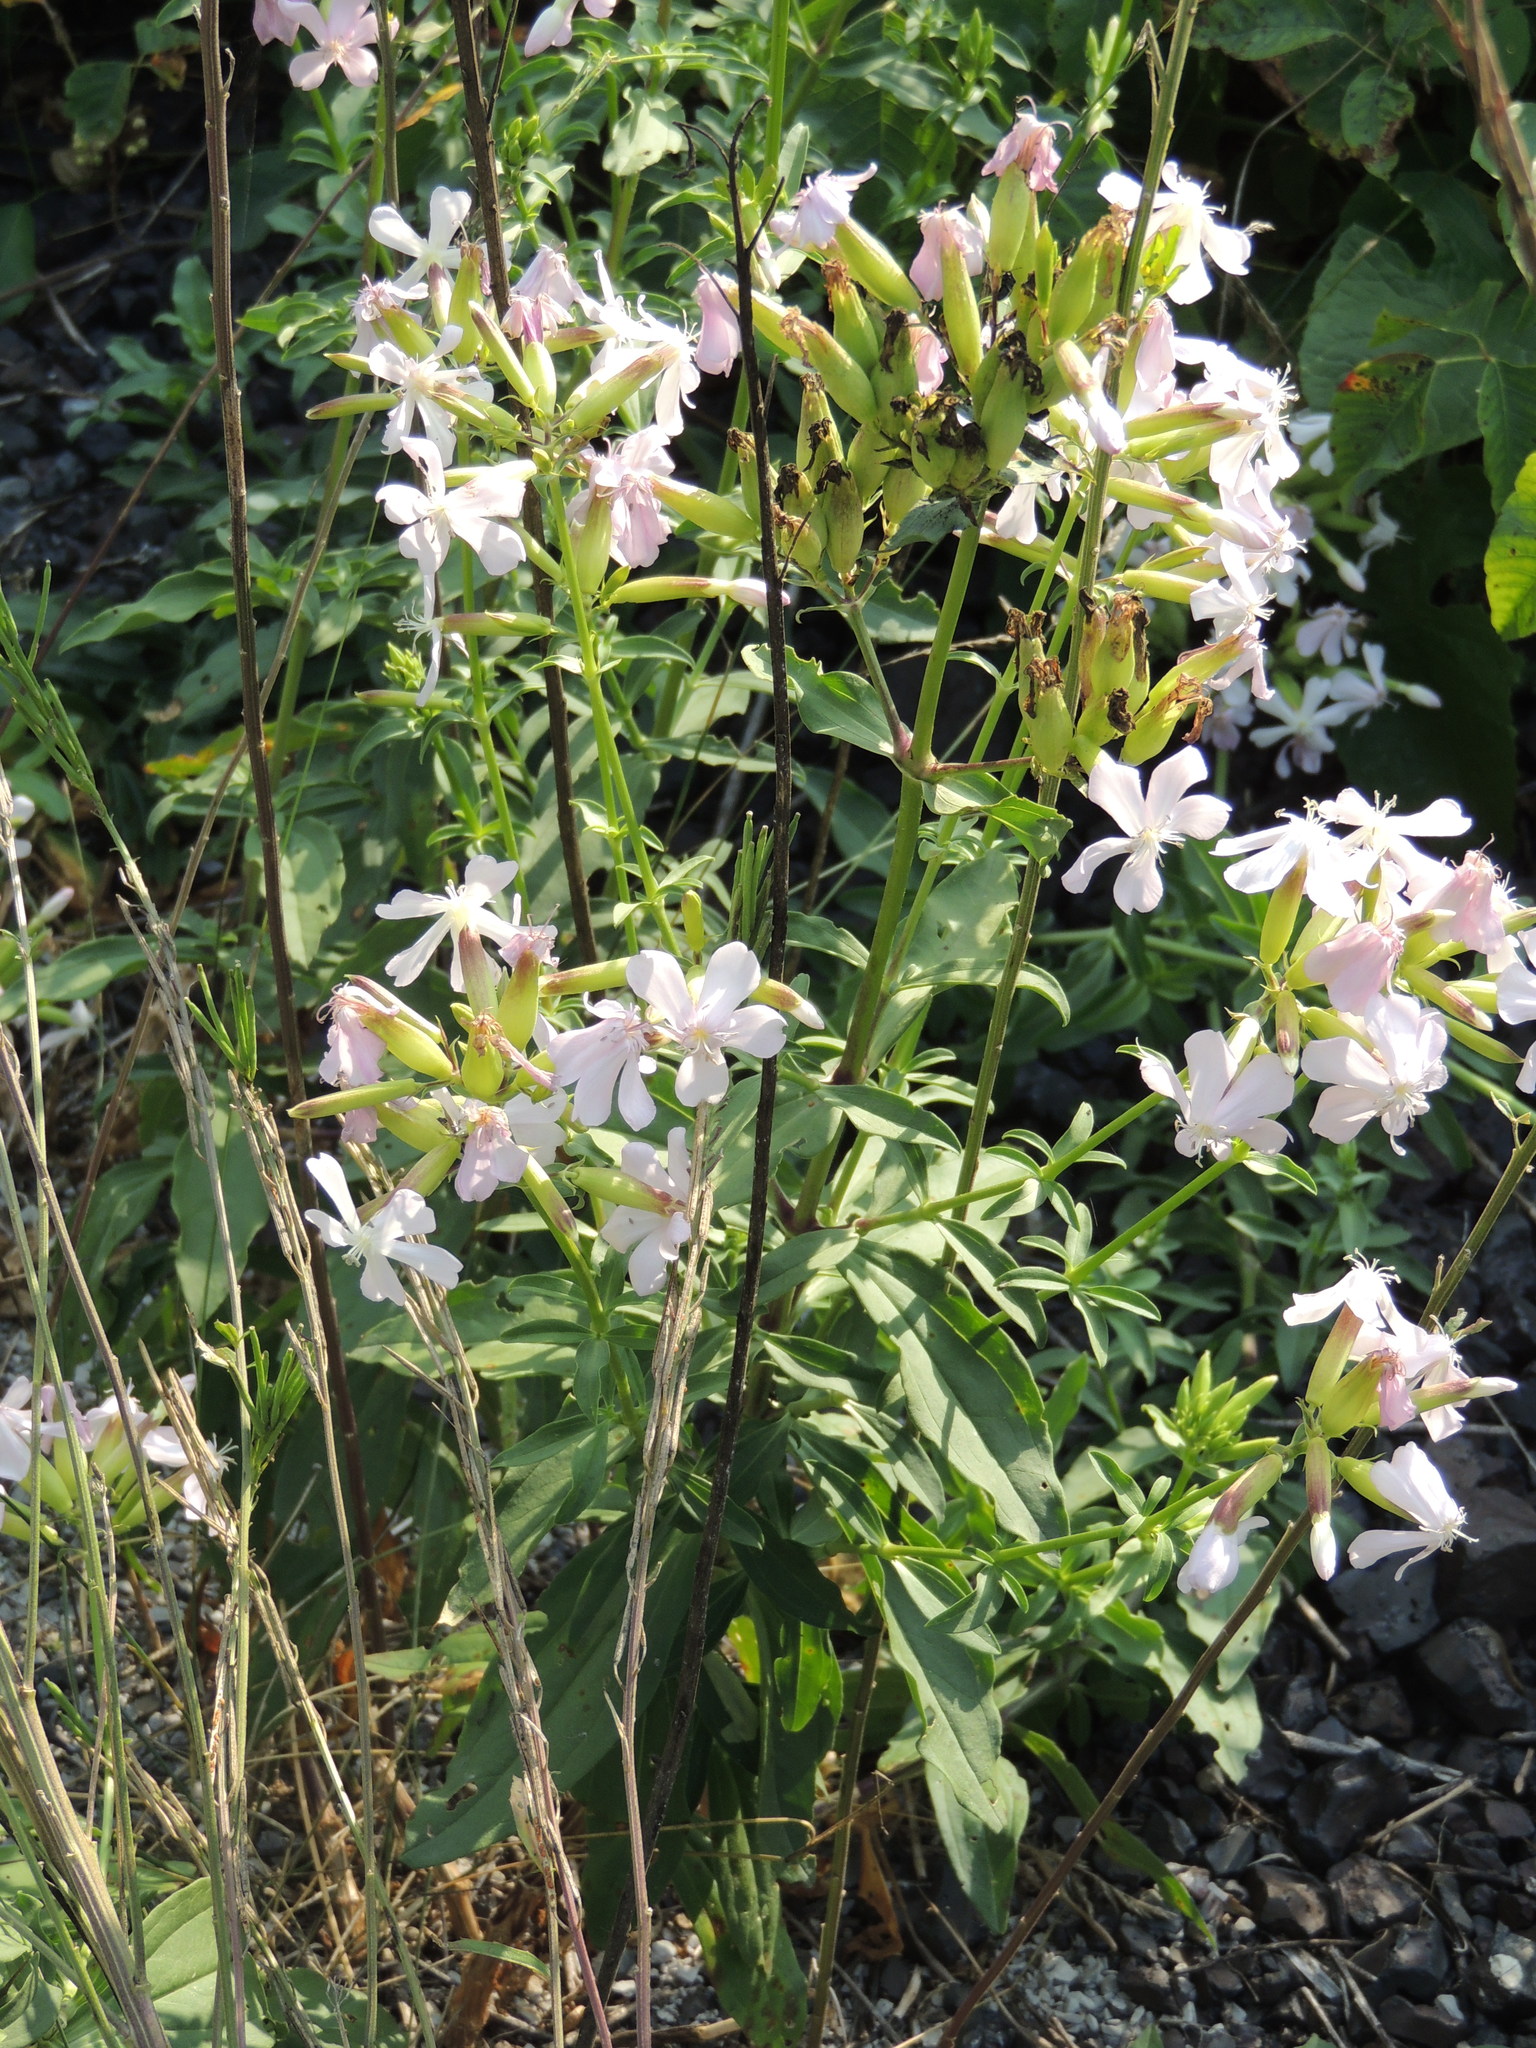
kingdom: Plantae
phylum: Tracheophyta
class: Magnoliopsida
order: Caryophyllales
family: Caryophyllaceae
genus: Saponaria
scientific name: Saponaria officinalis
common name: Soapwort
